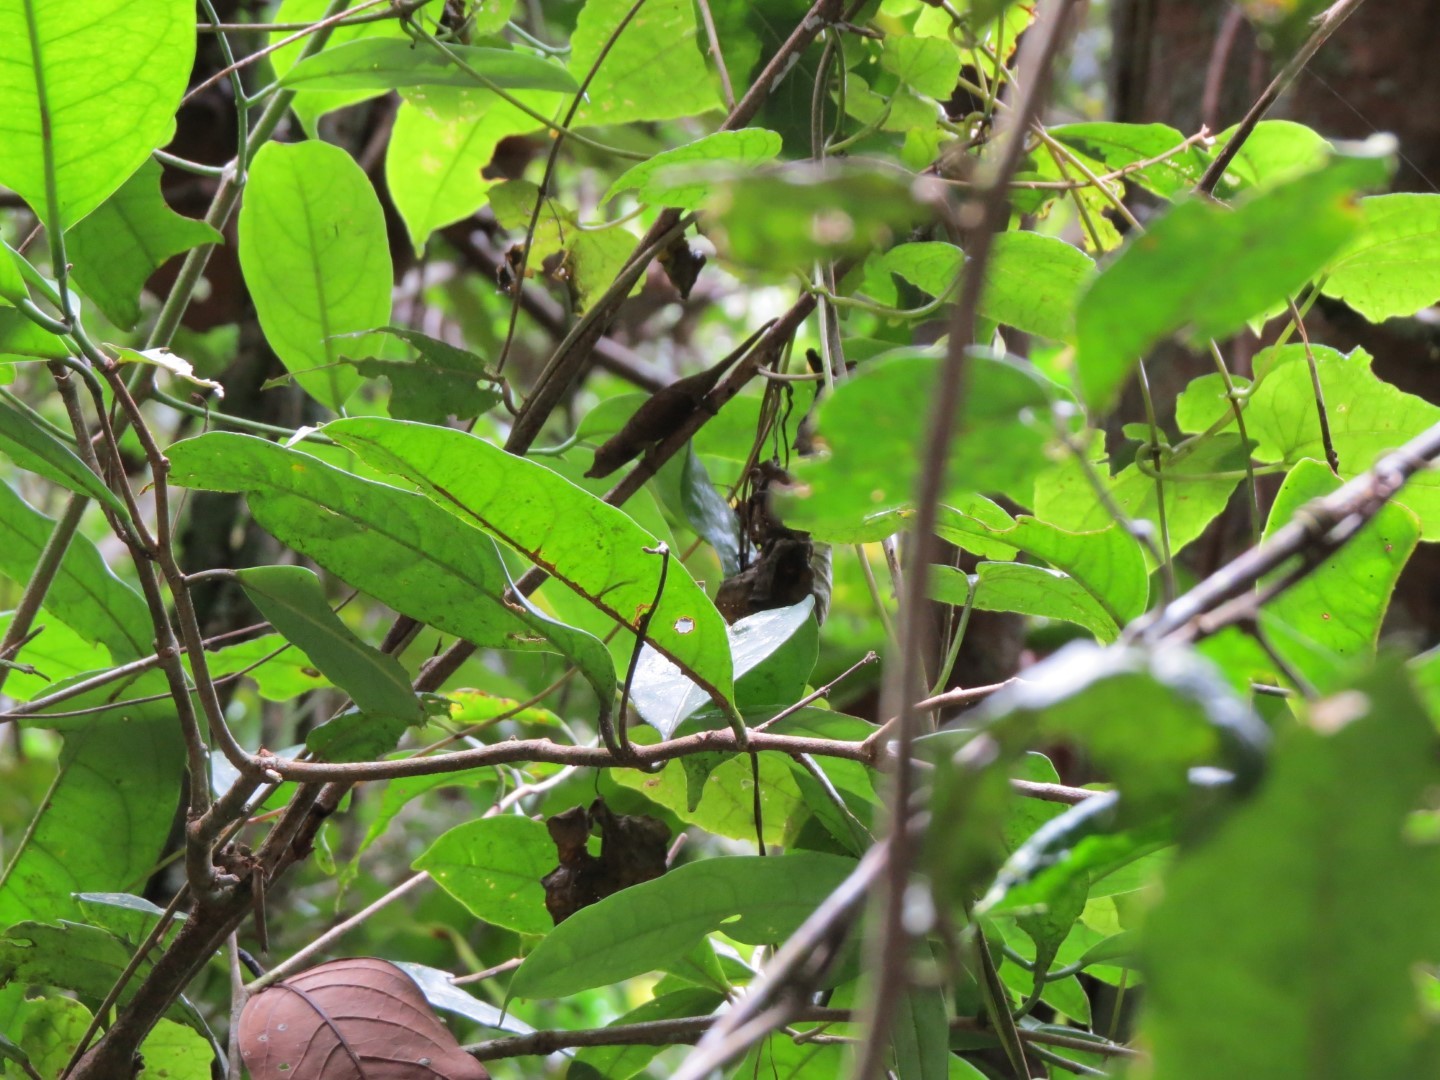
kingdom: Animalia
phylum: Chordata
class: Squamata
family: Chamaeleonidae
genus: Calumma
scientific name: Calumma radamanus
